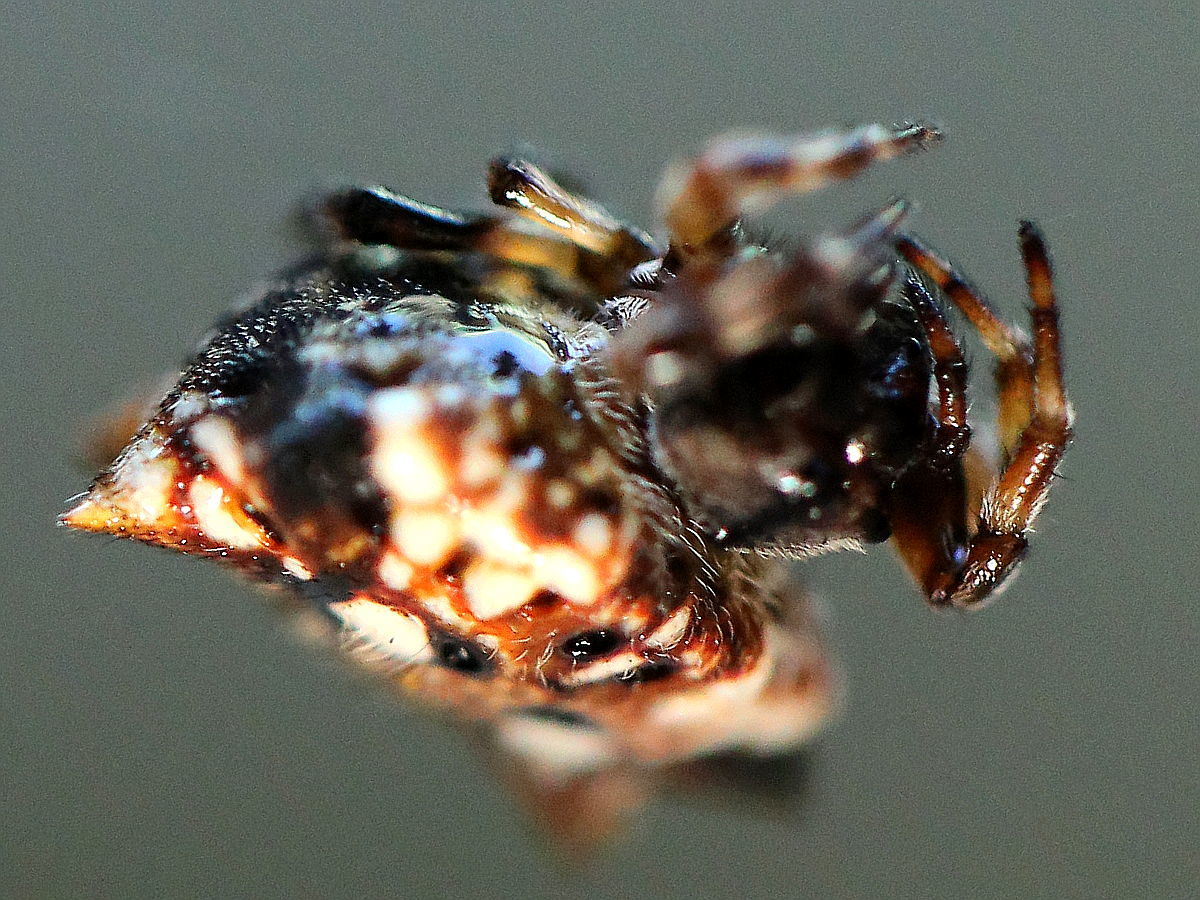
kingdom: Animalia
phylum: Arthropoda
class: Arachnida
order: Araneae
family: Araneidae
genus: Thelacantha
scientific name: Thelacantha brevispina
